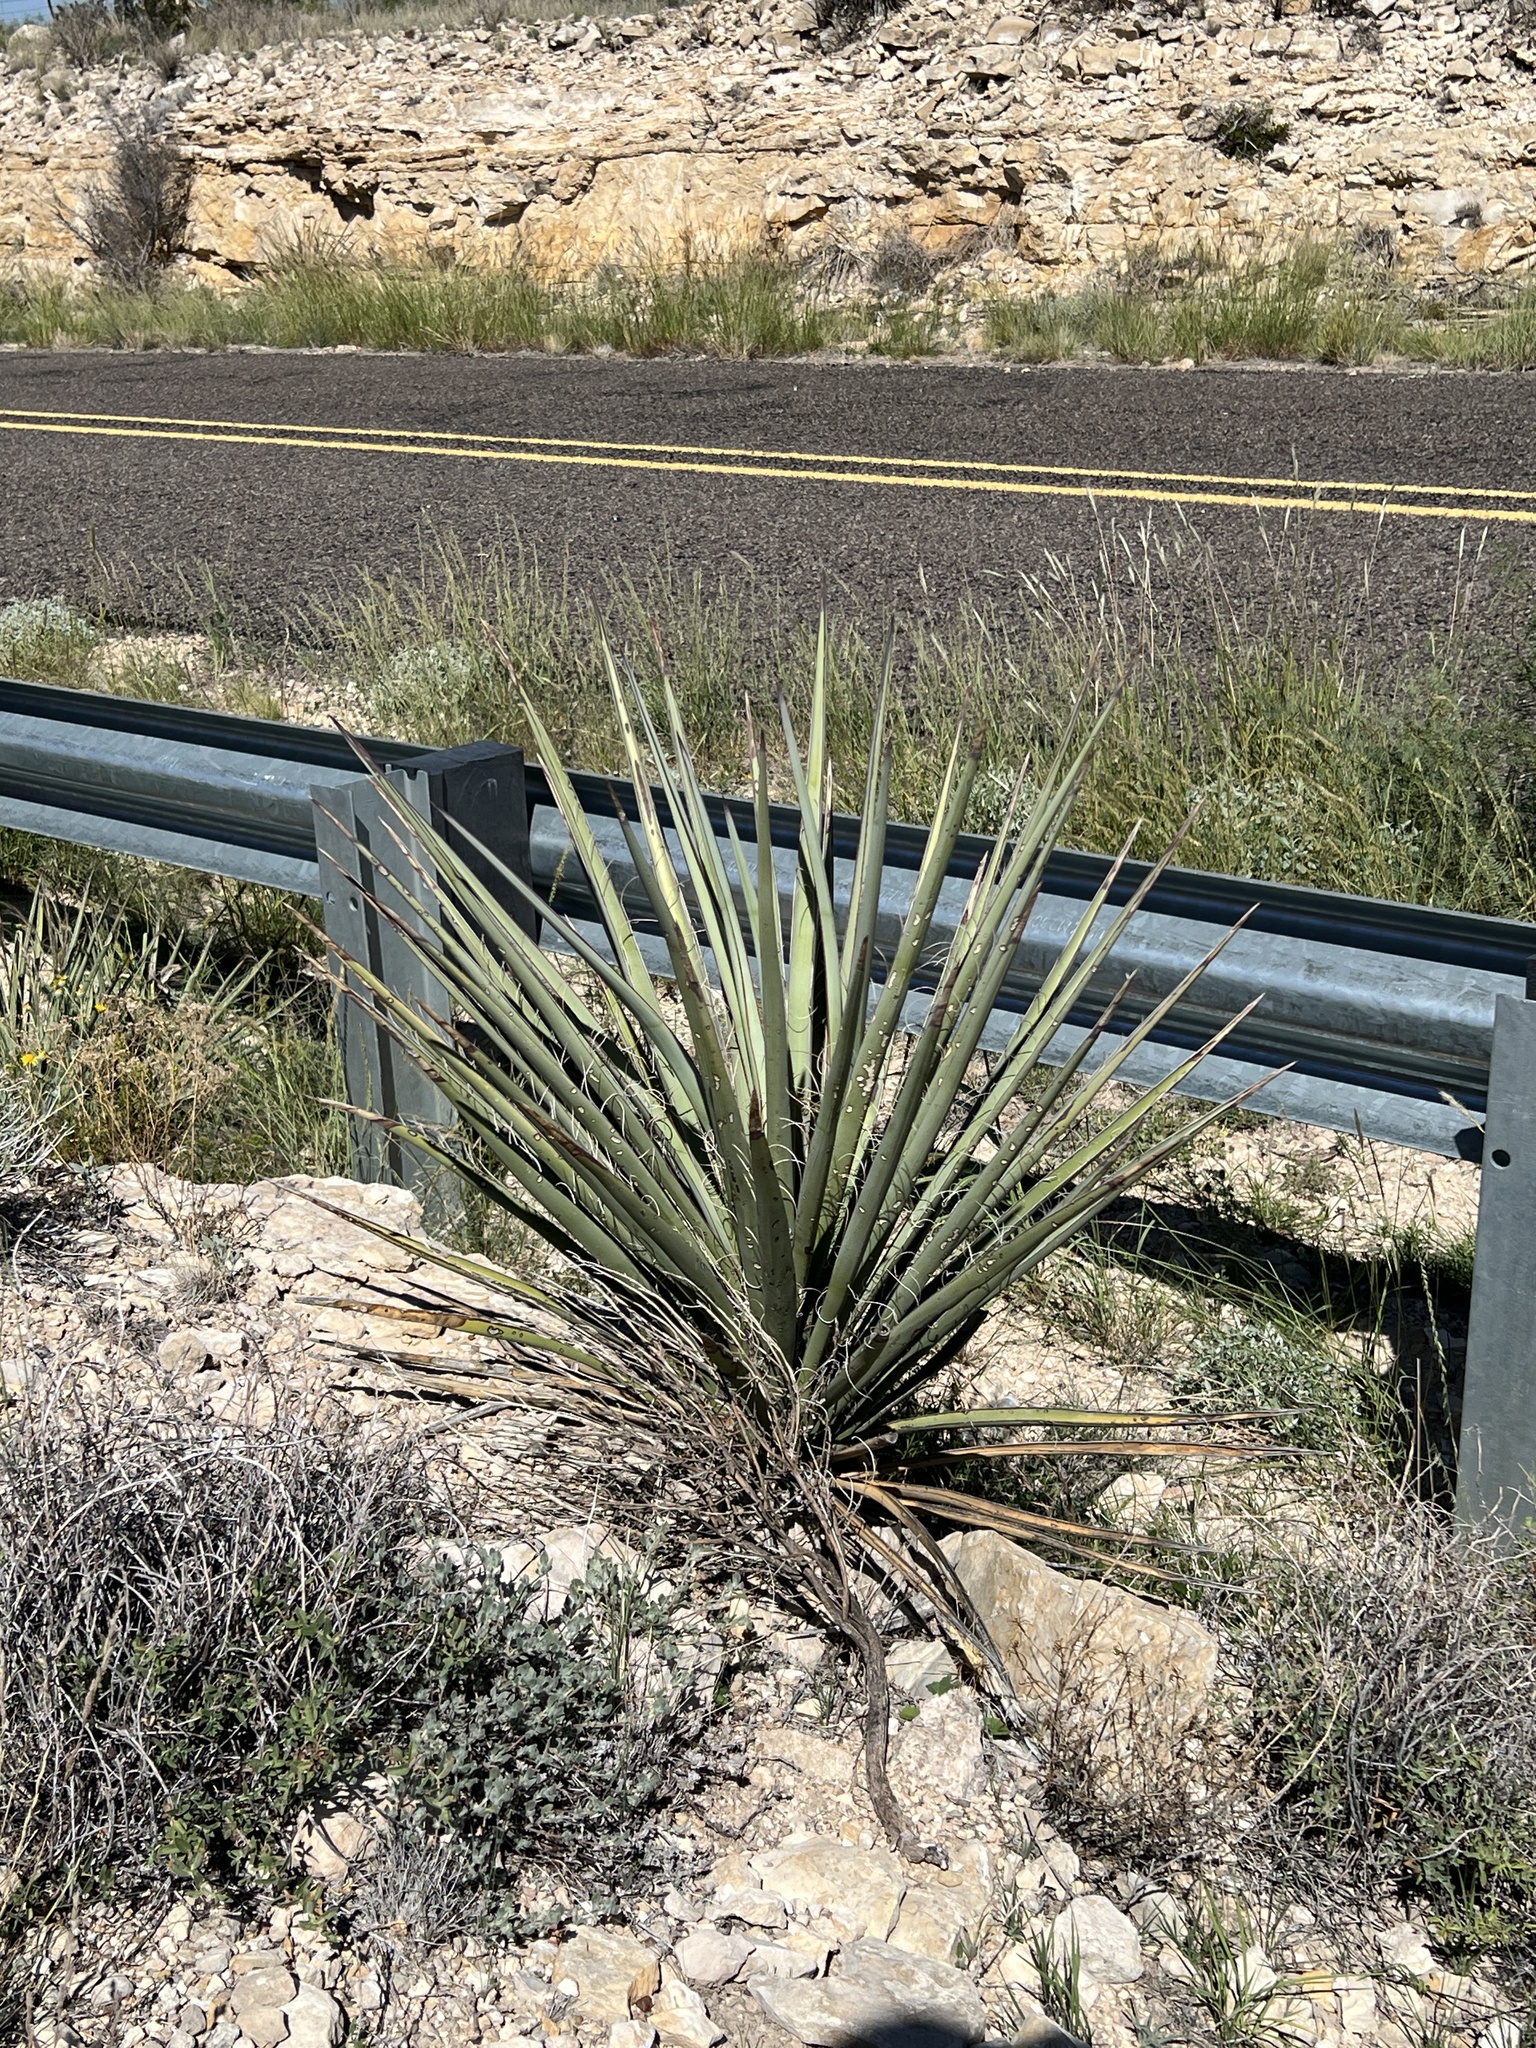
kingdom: Plantae
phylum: Tracheophyta
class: Liliopsida
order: Asparagales
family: Asparagaceae
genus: Yucca
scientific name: Yucca treculiana
